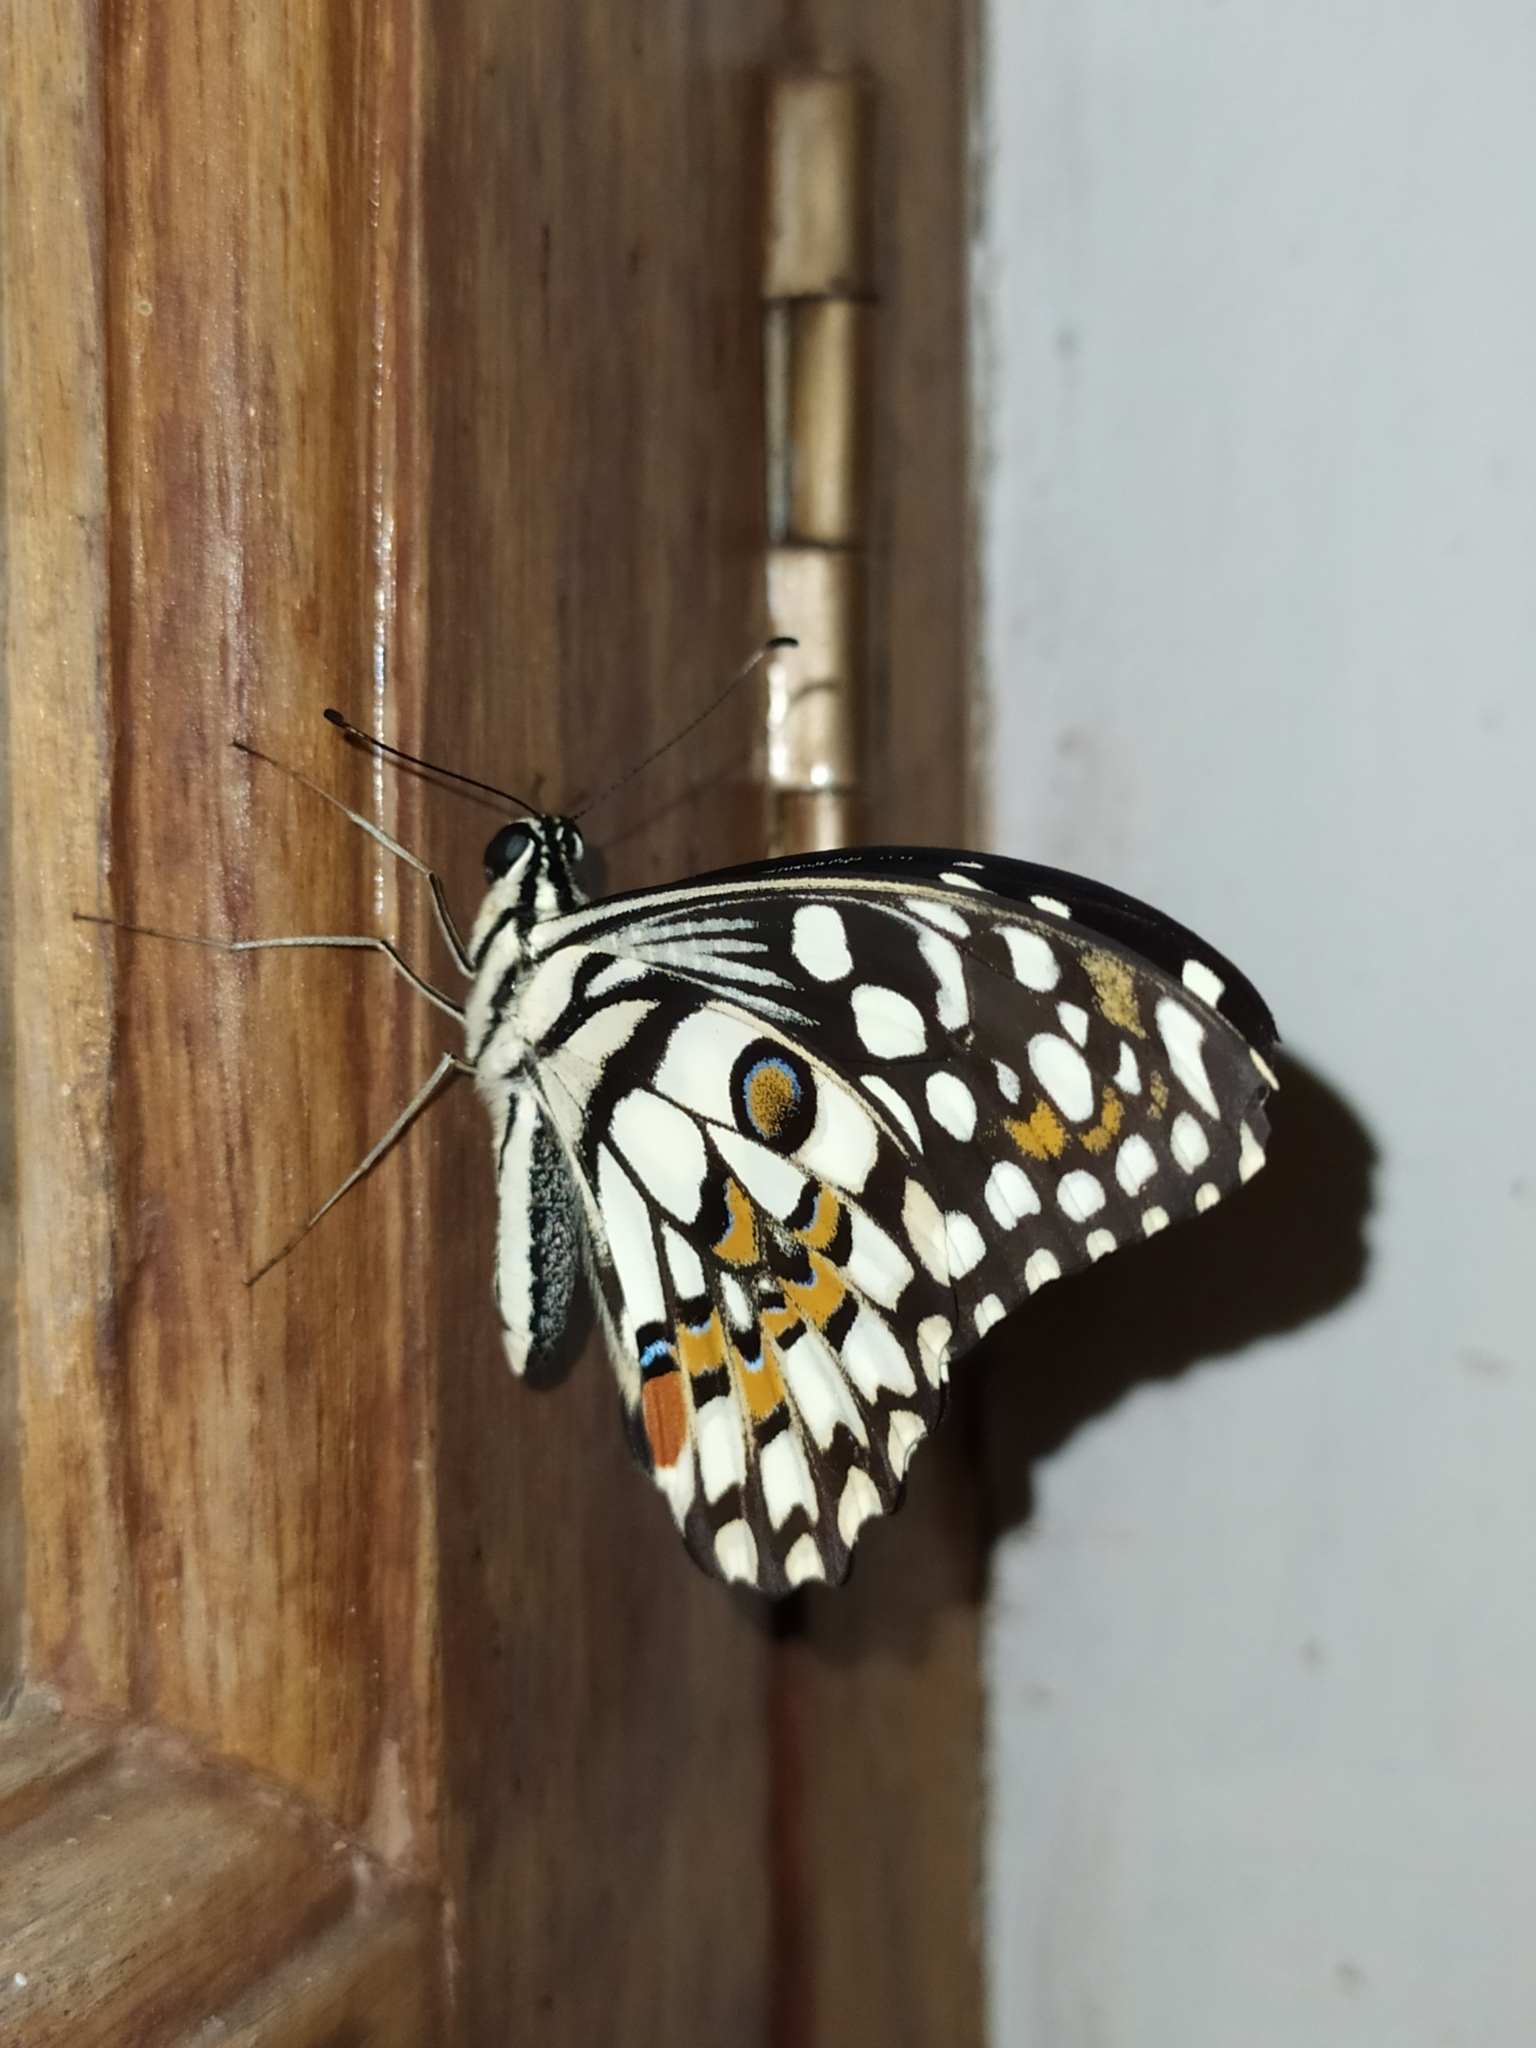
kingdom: Animalia
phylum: Arthropoda
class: Insecta
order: Lepidoptera
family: Papilionidae
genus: Papilio
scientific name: Papilio demoleus
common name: Lime butterfly
